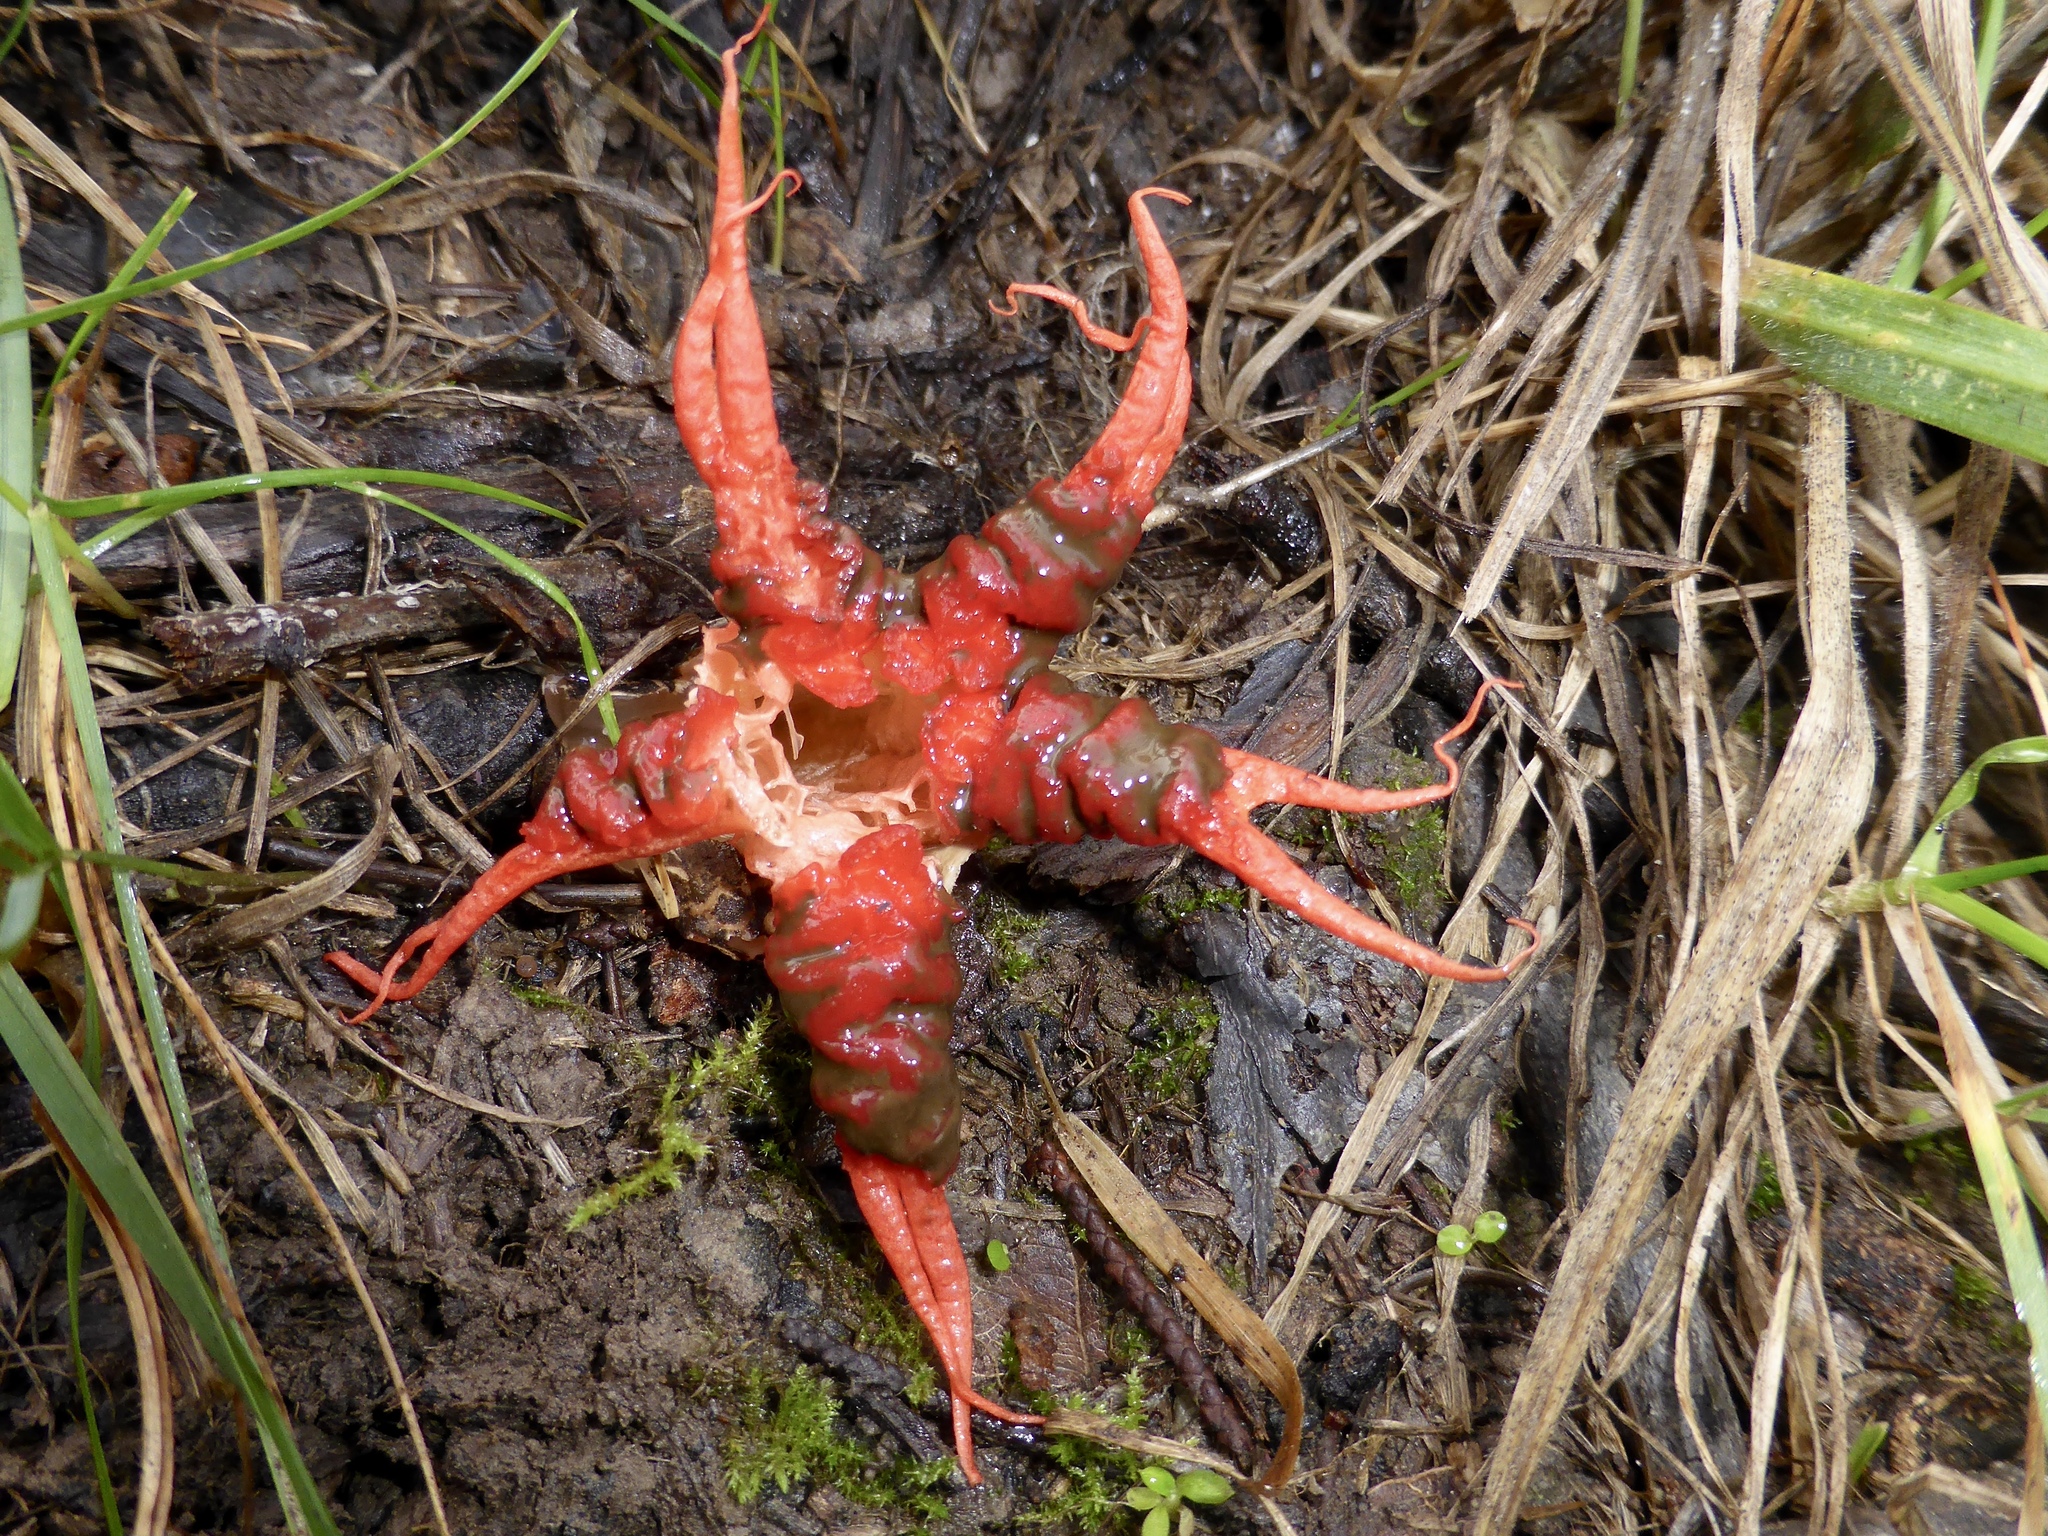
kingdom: Fungi
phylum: Basidiomycota
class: Agaricomycetes
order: Phallales
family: Phallaceae
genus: Aseroe
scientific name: Aseroe rubra
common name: Starfish fungus
